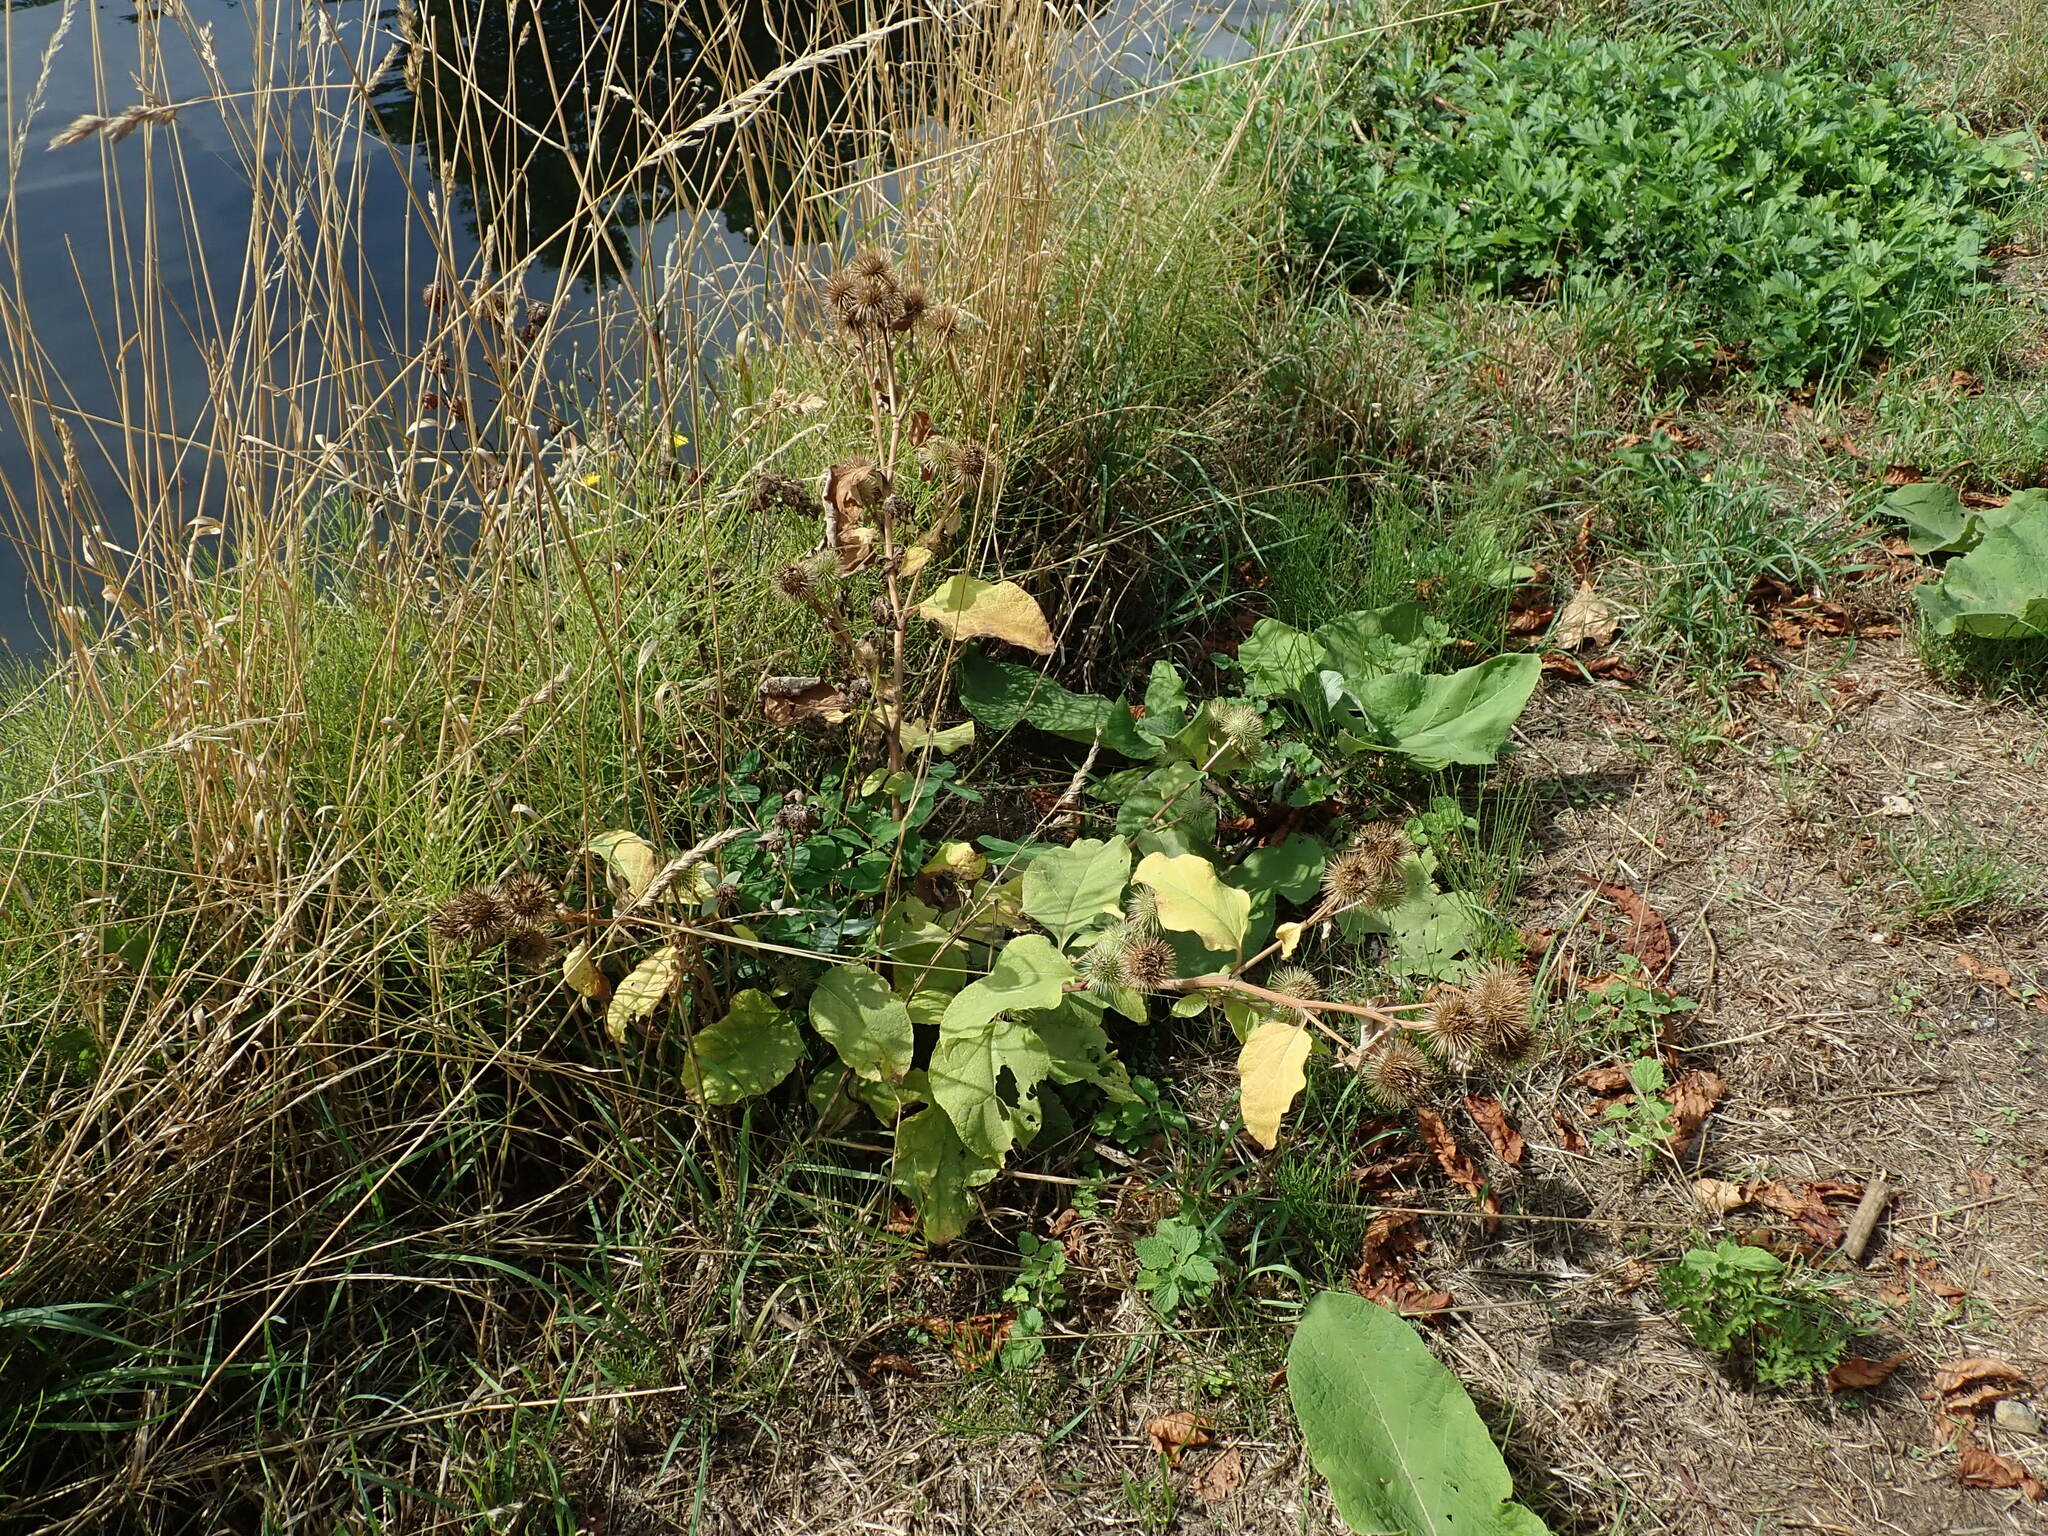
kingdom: Plantae
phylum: Tracheophyta
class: Magnoliopsida
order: Asterales
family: Asteraceae
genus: Arctium
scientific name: Arctium lappa
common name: Greater burdock
